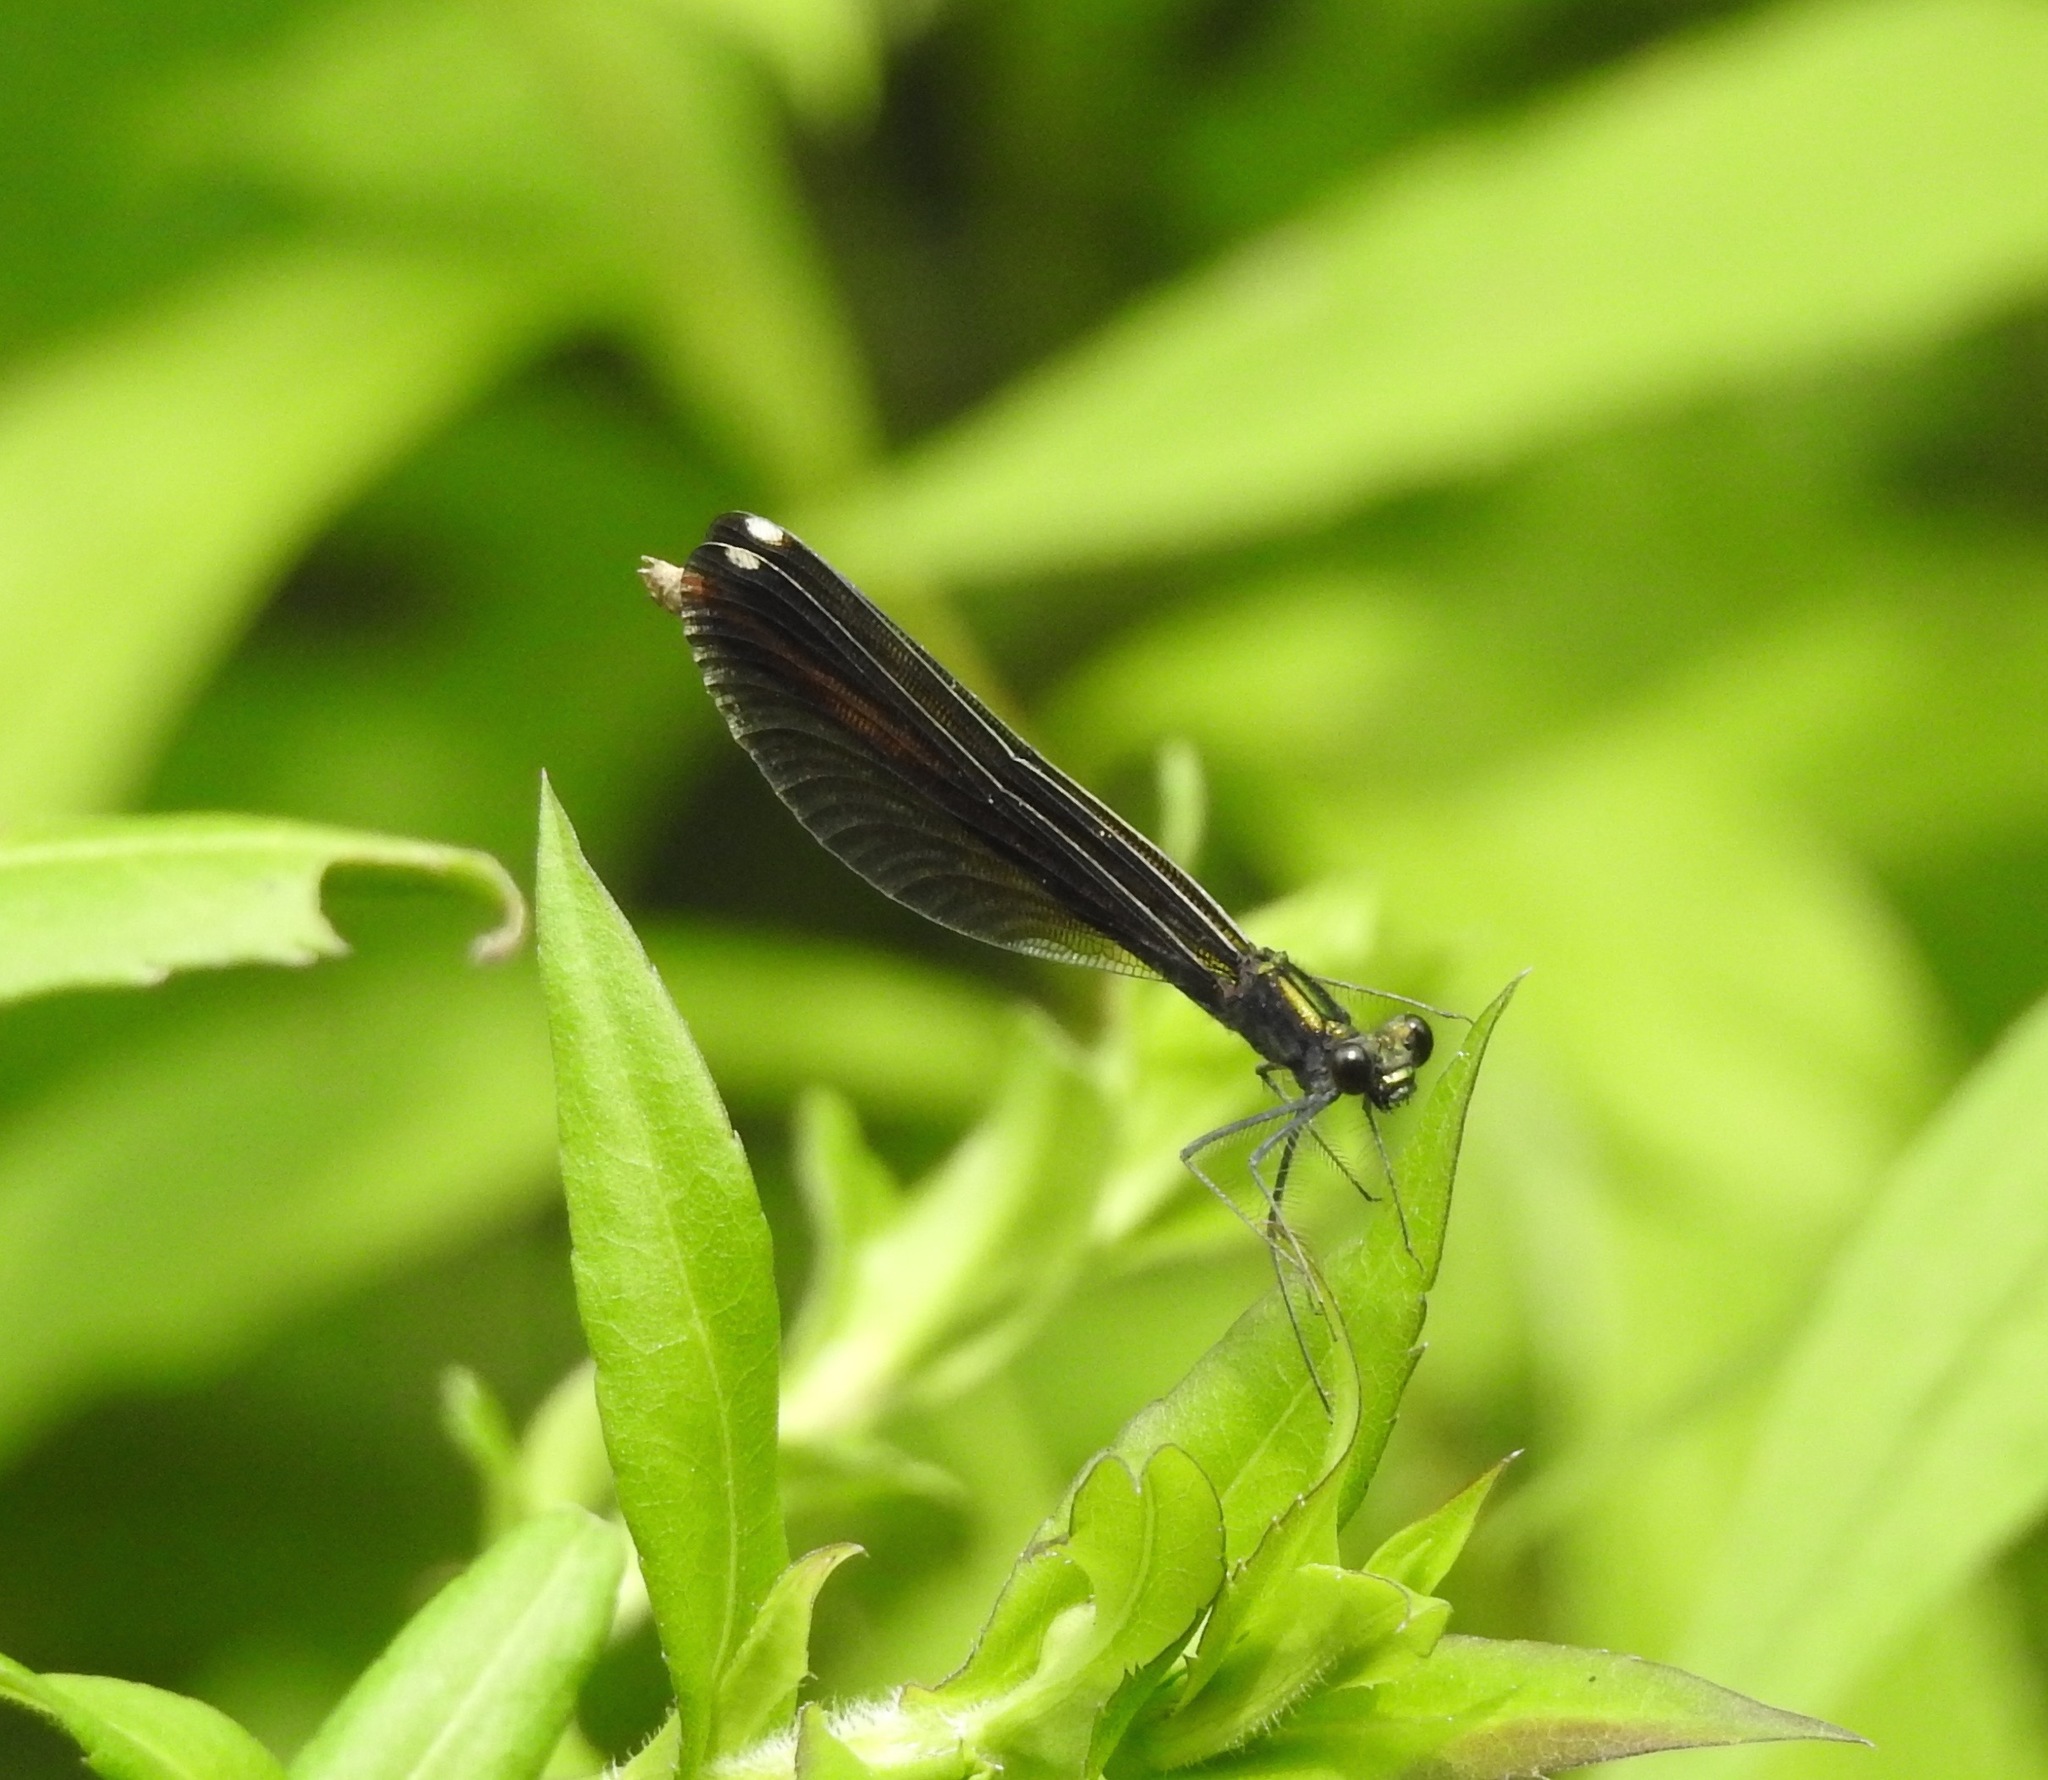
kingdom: Animalia
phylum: Arthropoda
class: Insecta
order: Odonata
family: Calopterygidae
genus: Calopteryx
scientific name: Calopteryx maculata
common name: Ebony jewelwing
